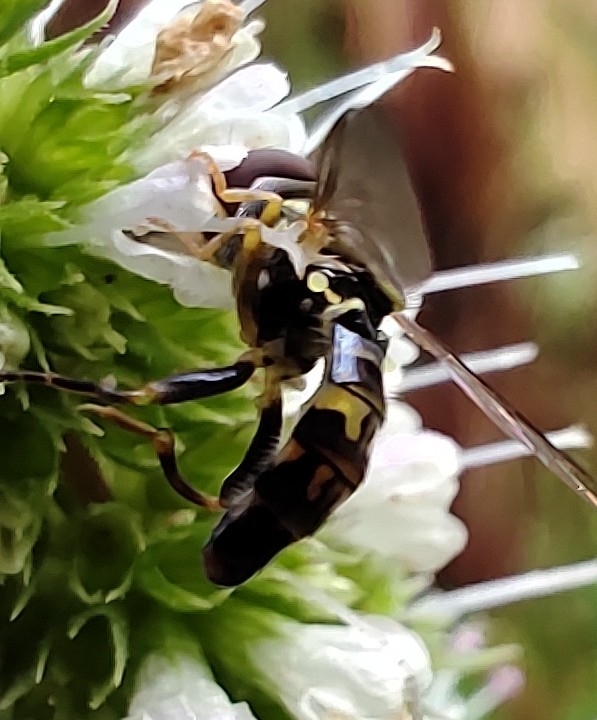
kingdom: Animalia
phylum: Arthropoda
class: Insecta
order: Diptera
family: Syrphidae
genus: Toxomerus
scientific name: Toxomerus geminatus
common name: Eastern calligrapher
